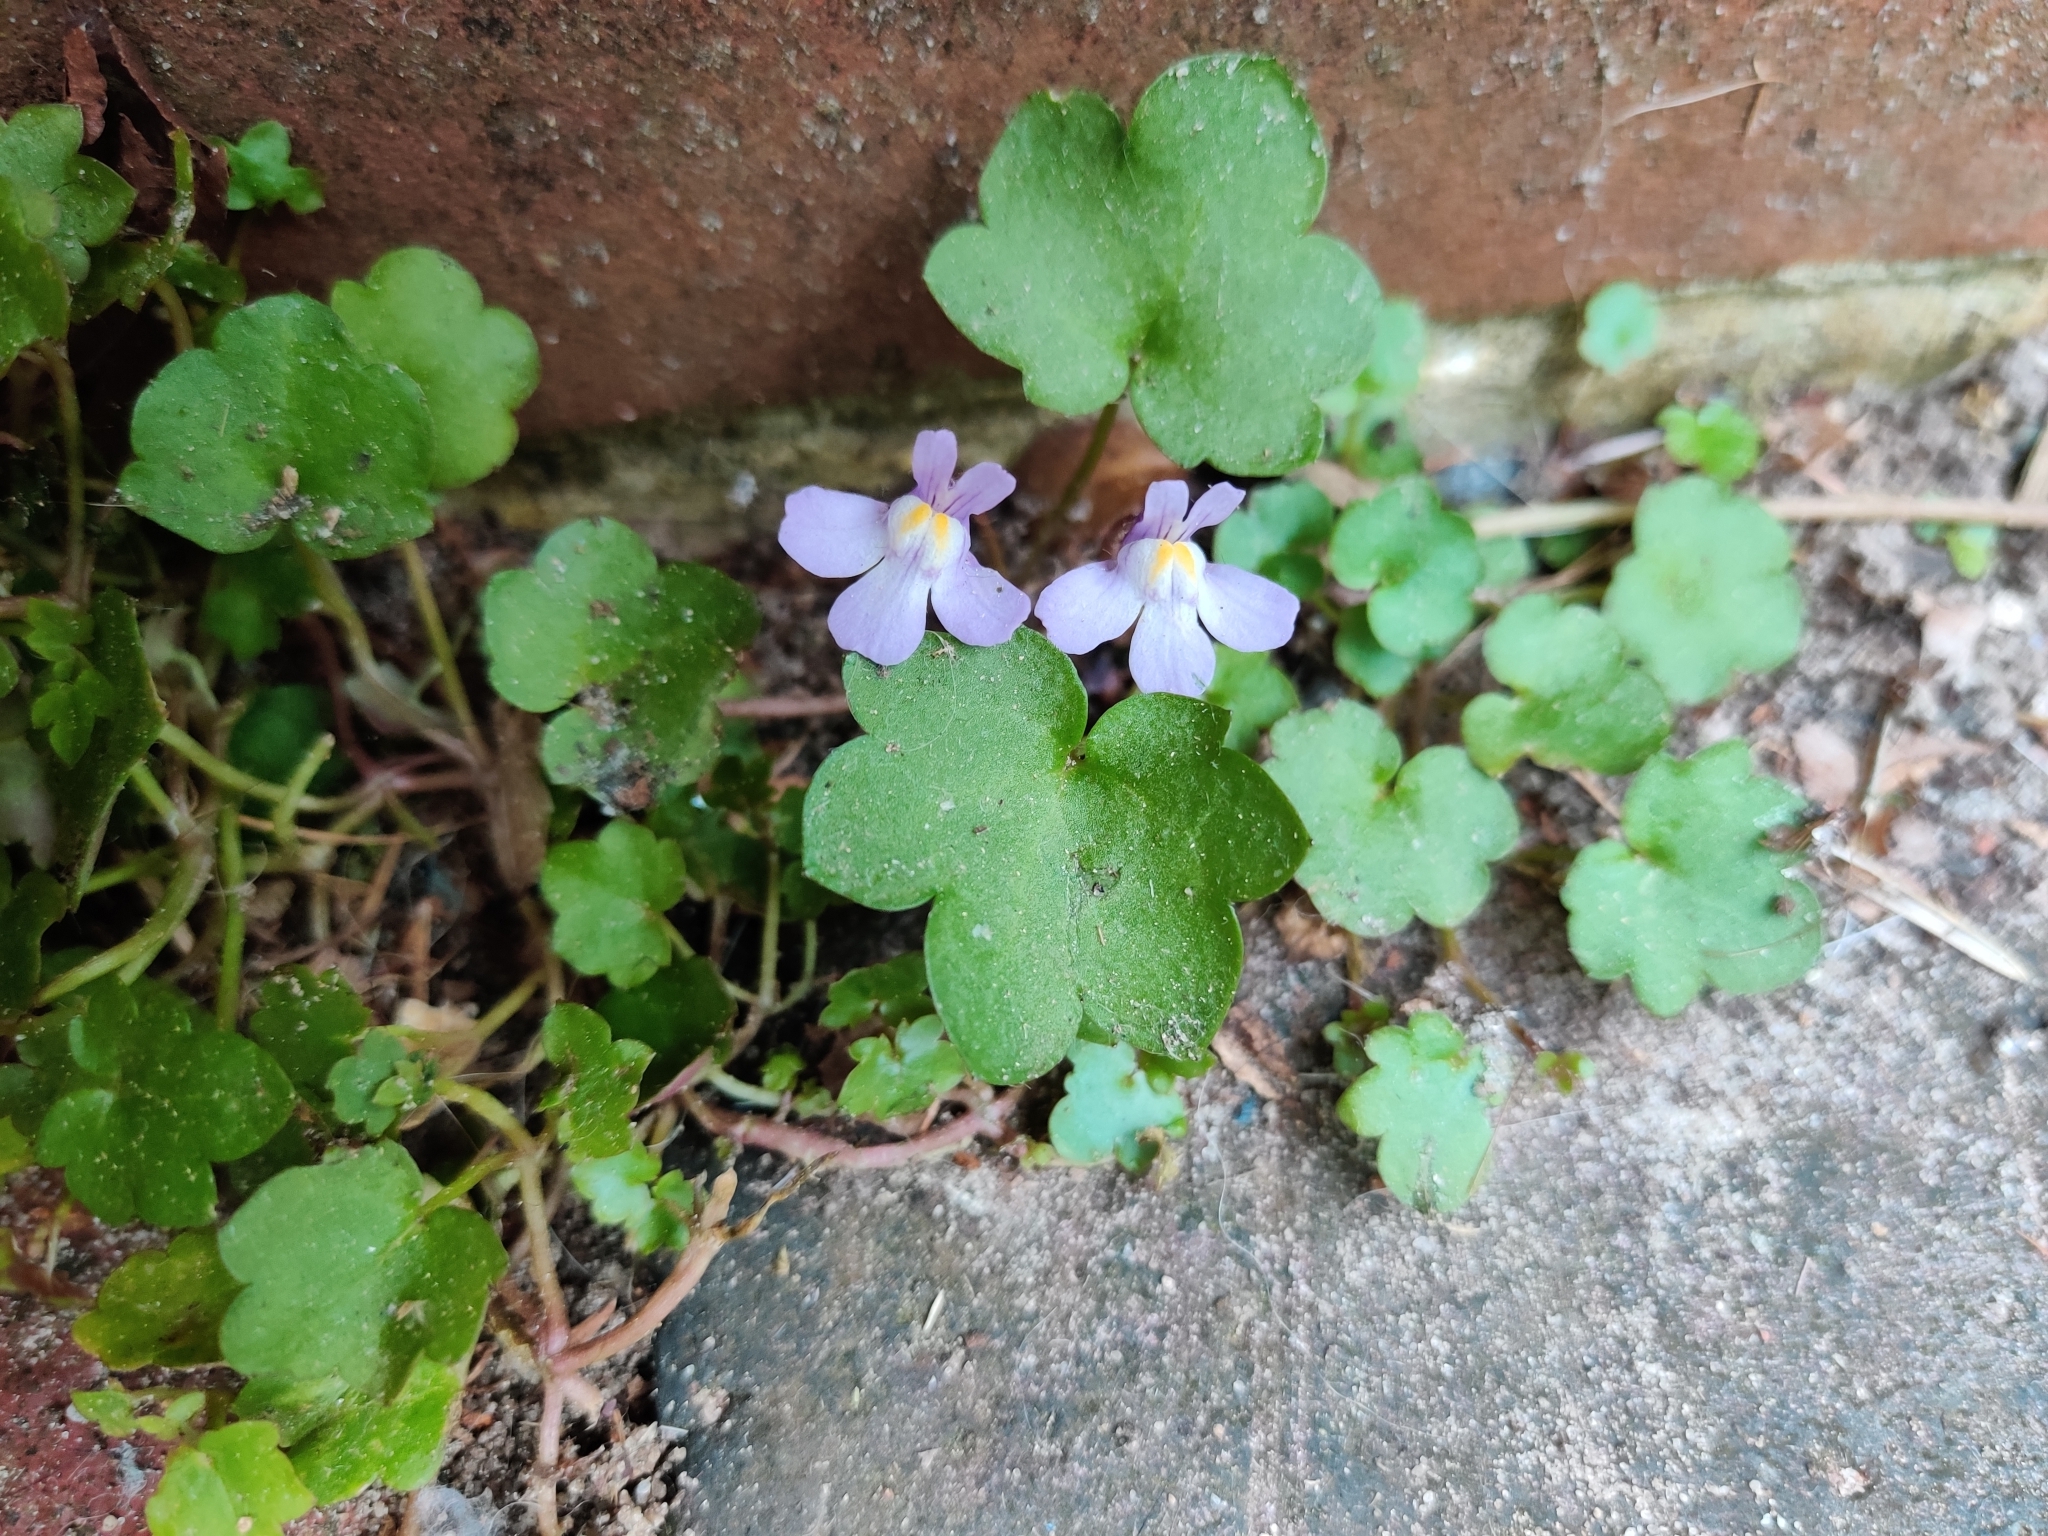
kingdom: Plantae
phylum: Tracheophyta
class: Magnoliopsida
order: Lamiales
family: Plantaginaceae
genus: Cymbalaria
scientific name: Cymbalaria muralis
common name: Ivy-leaved toadflax
